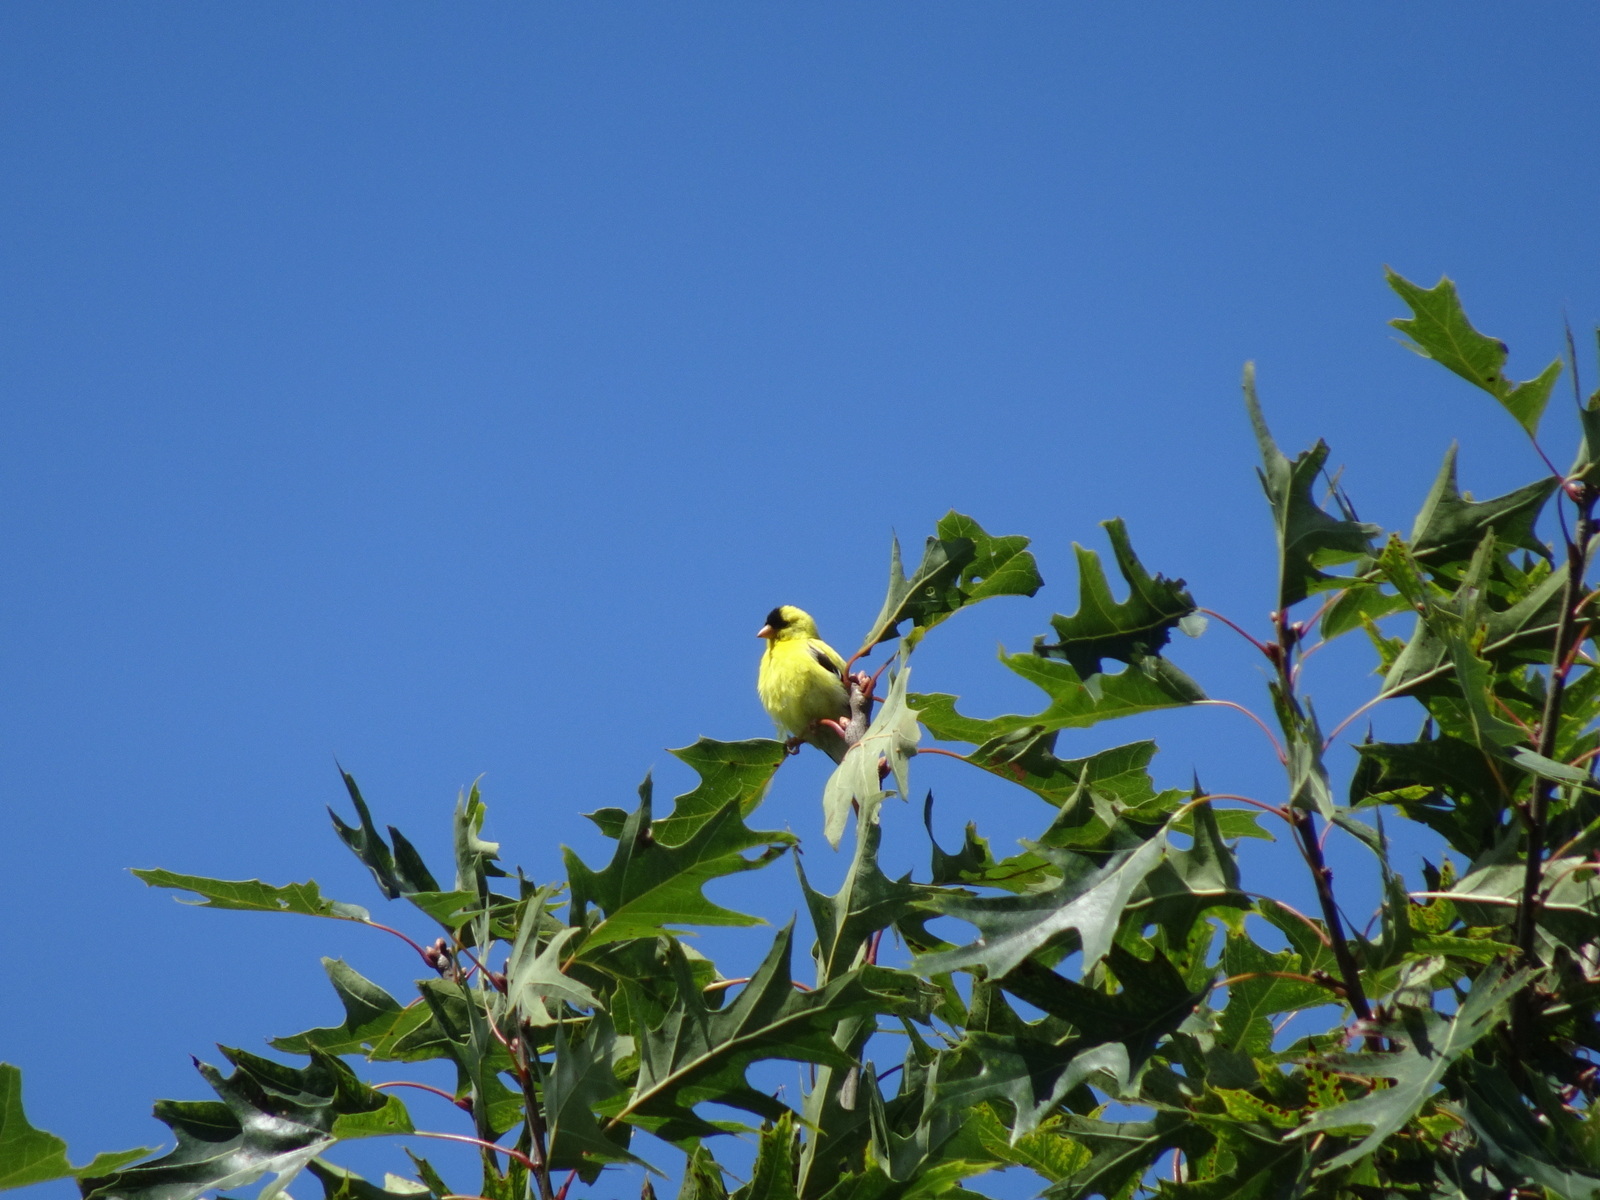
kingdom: Animalia
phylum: Chordata
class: Aves
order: Passeriformes
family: Fringillidae
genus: Spinus
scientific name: Spinus tristis
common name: American goldfinch
